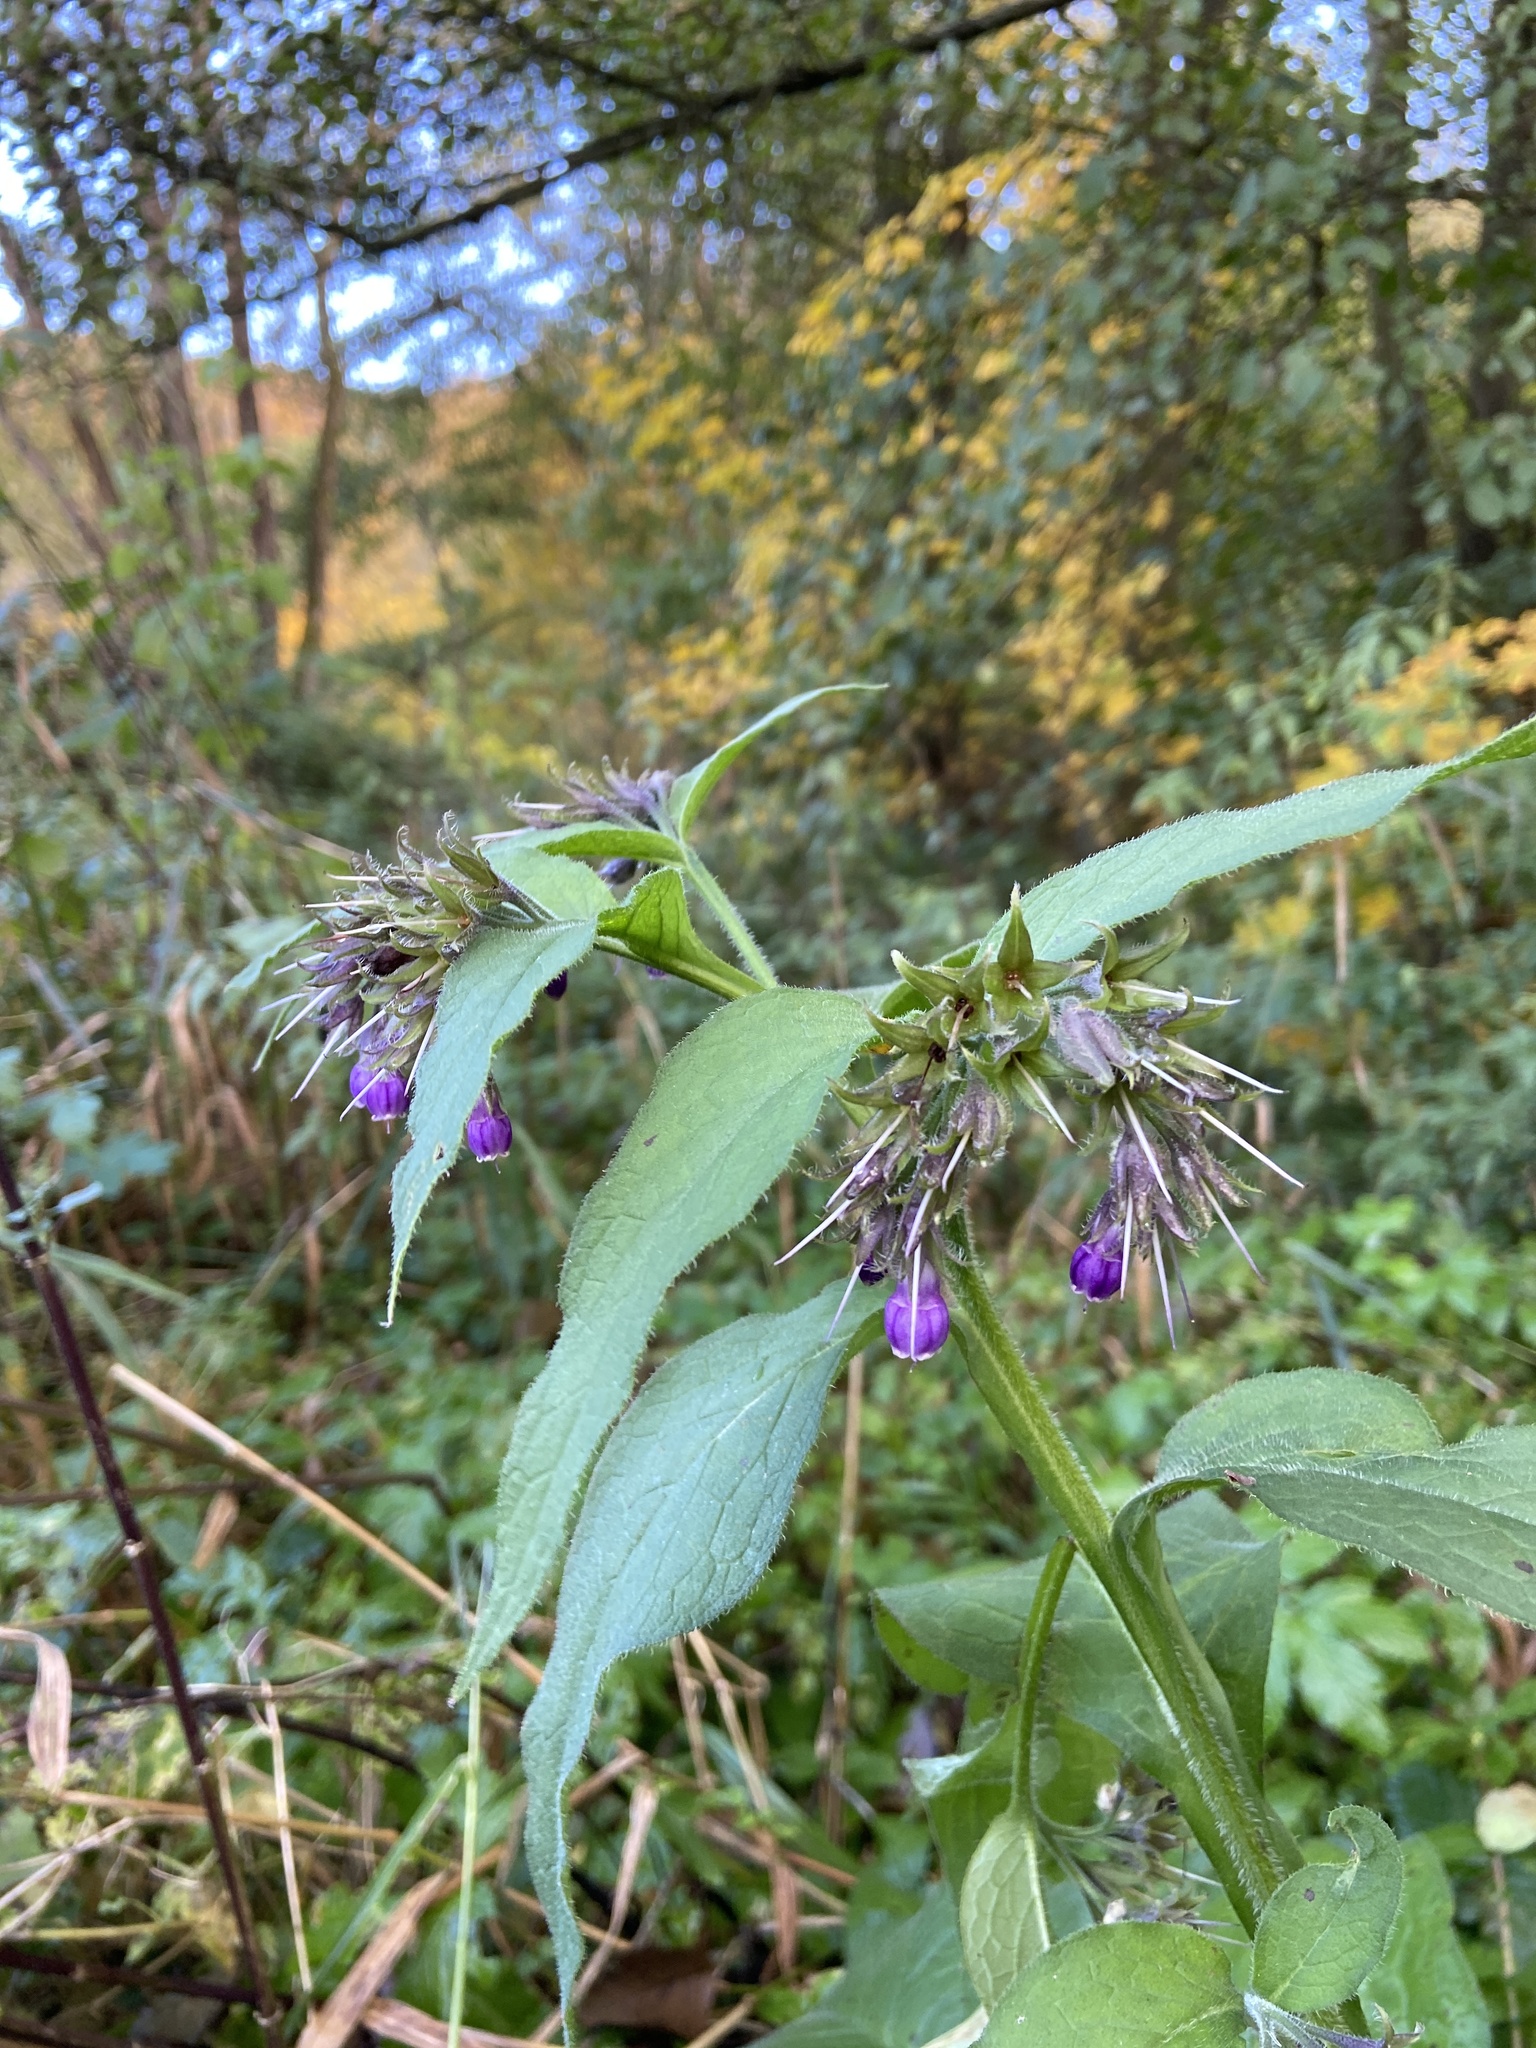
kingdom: Plantae
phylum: Tracheophyta
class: Magnoliopsida
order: Boraginales
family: Boraginaceae
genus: Symphytum
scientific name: Symphytum officinale
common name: Common comfrey
